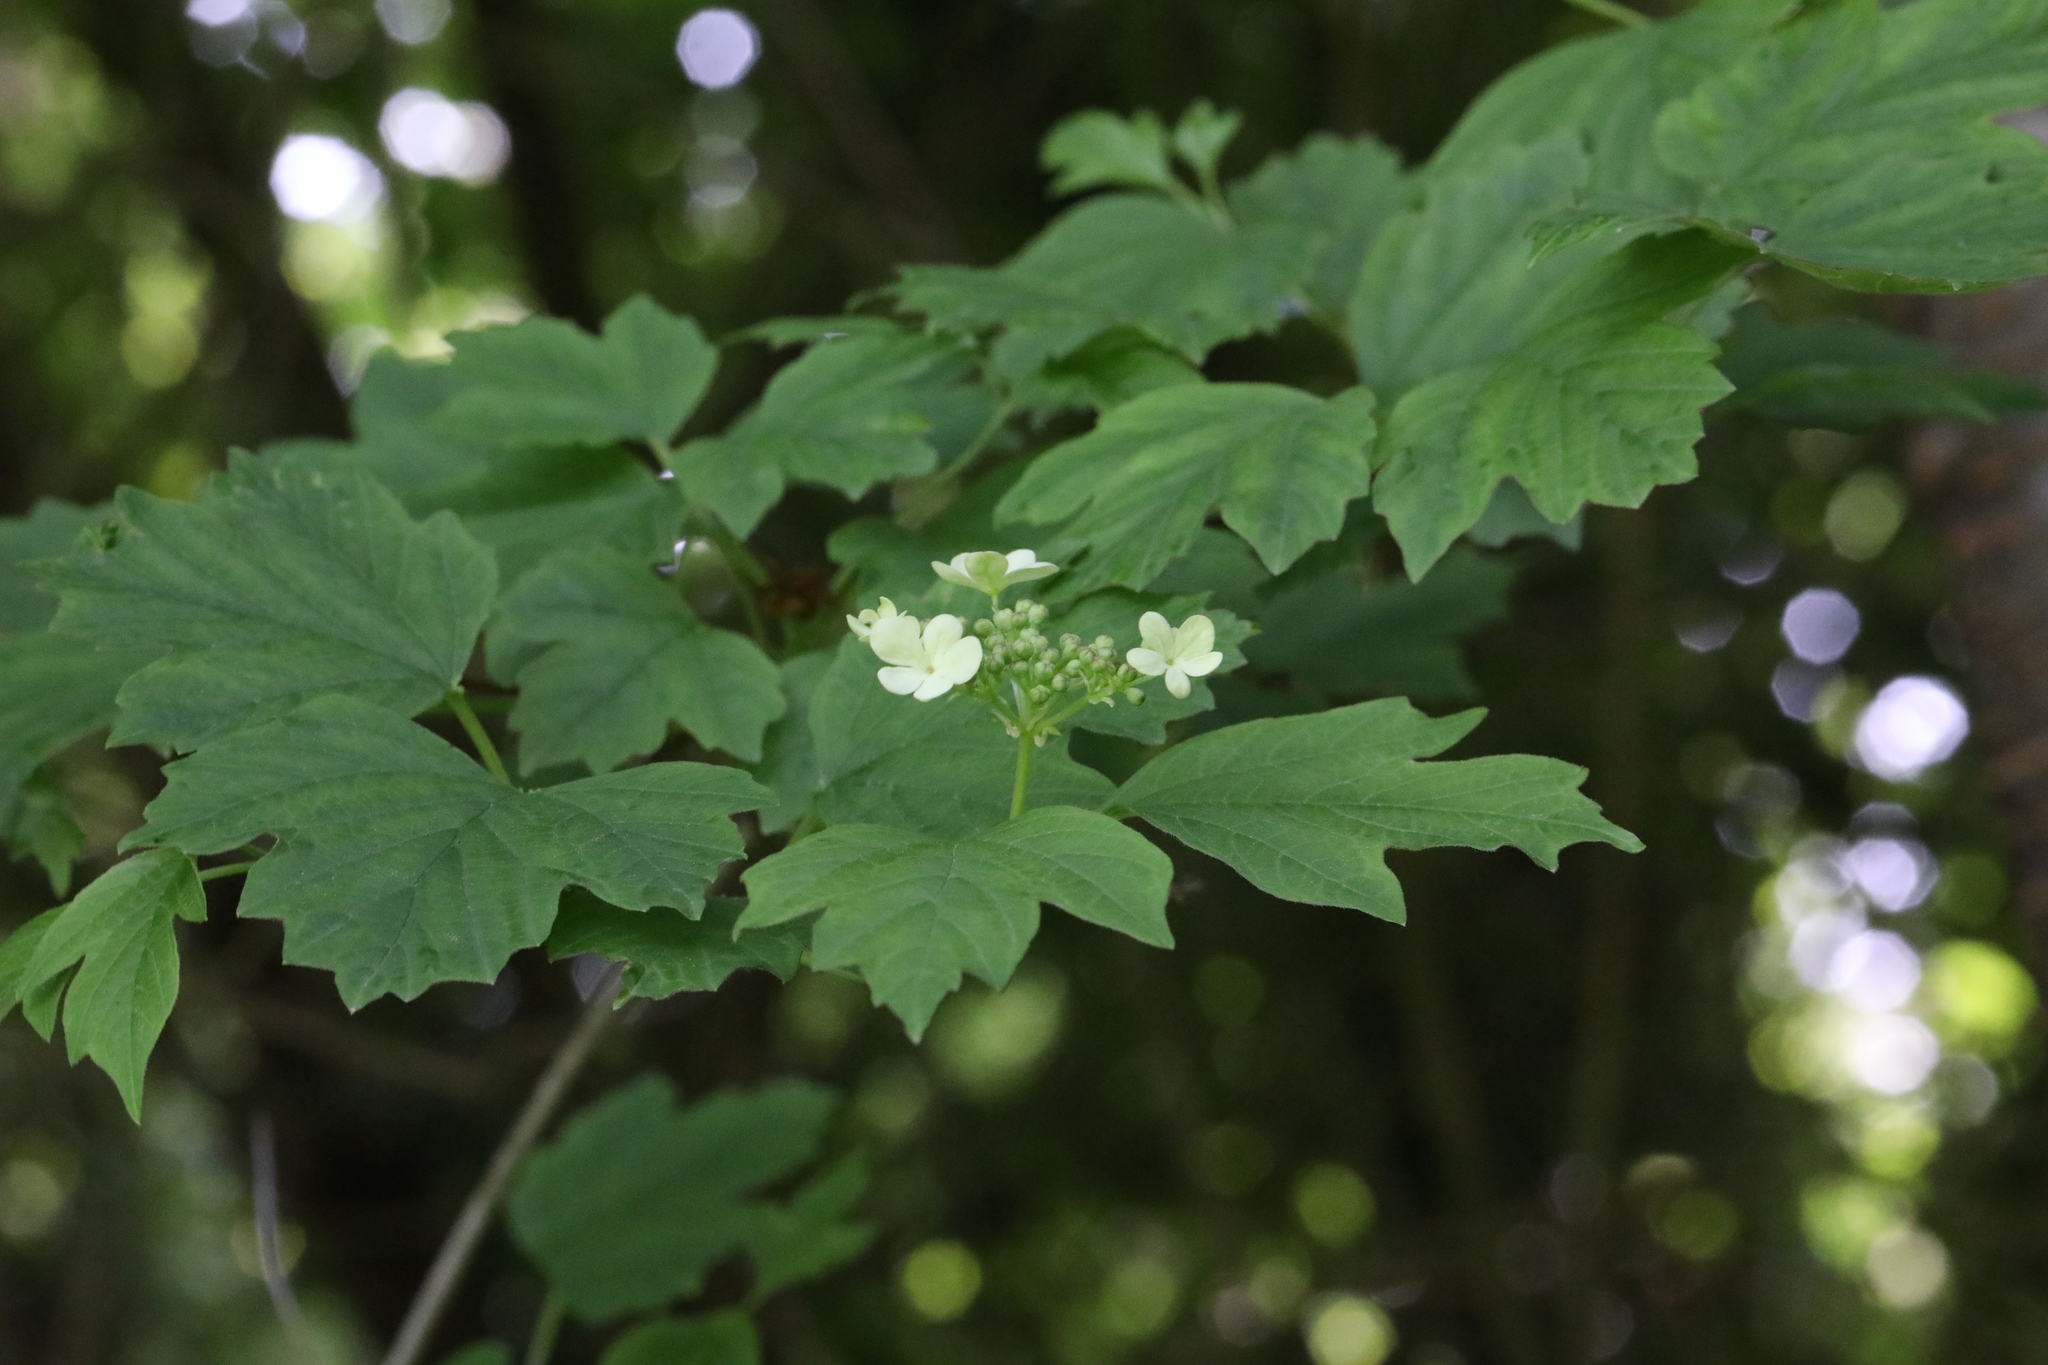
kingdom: Plantae
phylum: Tracheophyta
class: Magnoliopsida
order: Dipsacales
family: Viburnaceae
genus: Viburnum
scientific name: Viburnum opulus
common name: Guelder-rose
